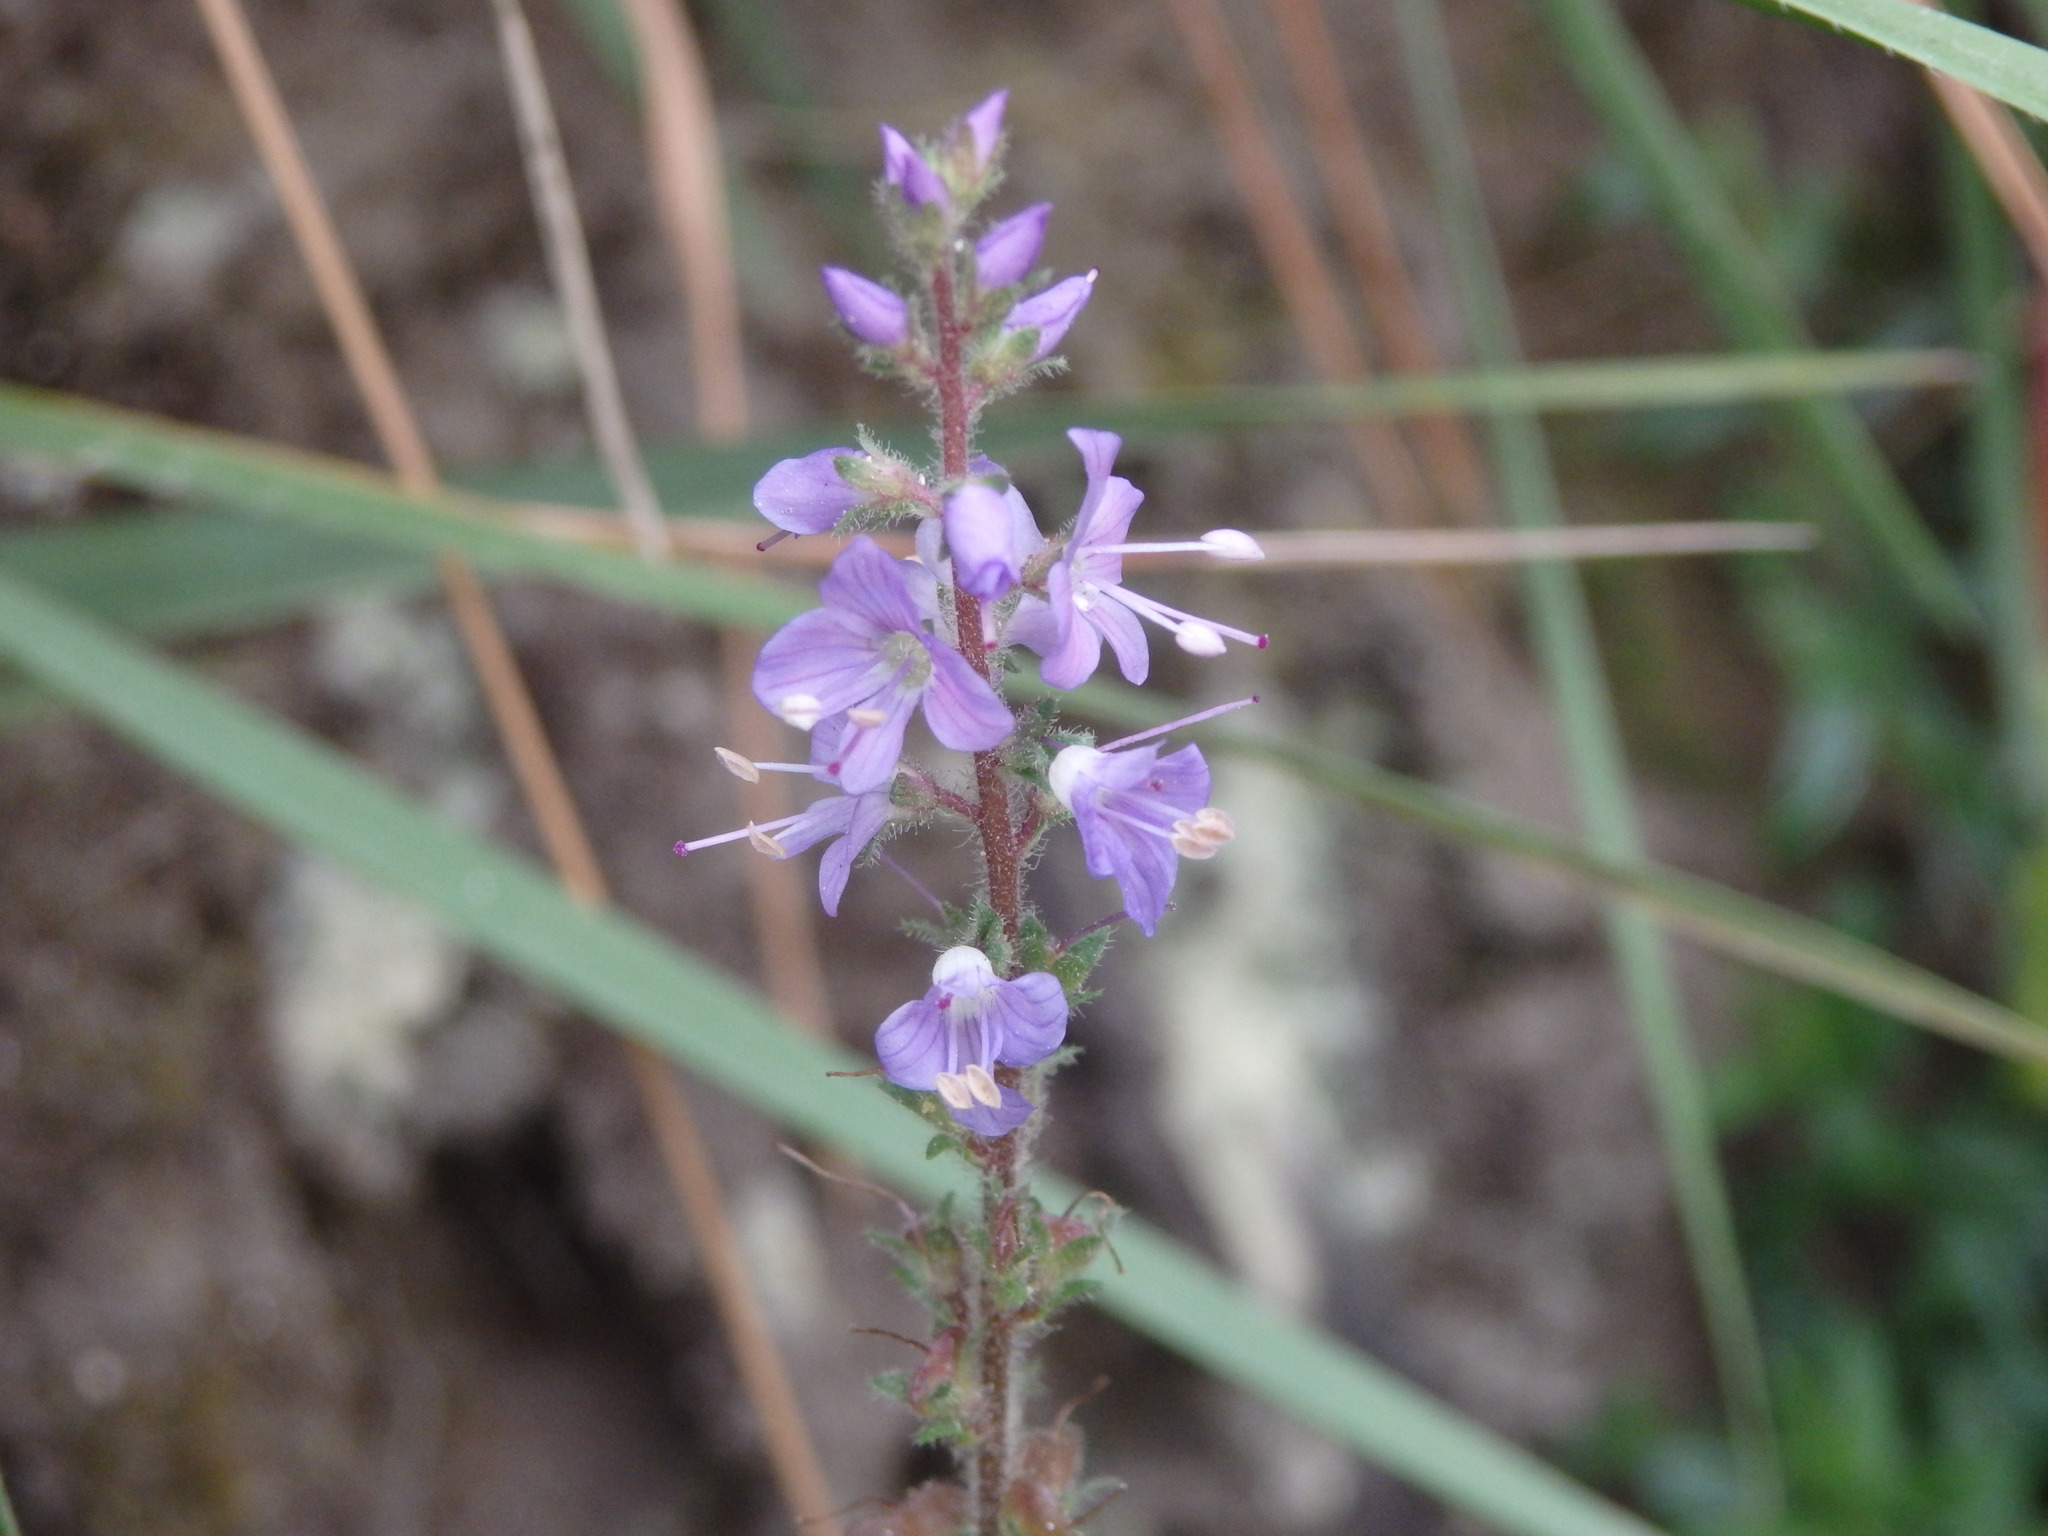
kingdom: Plantae
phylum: Tracheophyta
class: Magnoliopsida
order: Lamiales
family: Plantaginaceae
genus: Veronica
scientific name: Veronica officinalis
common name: Common speedwell
